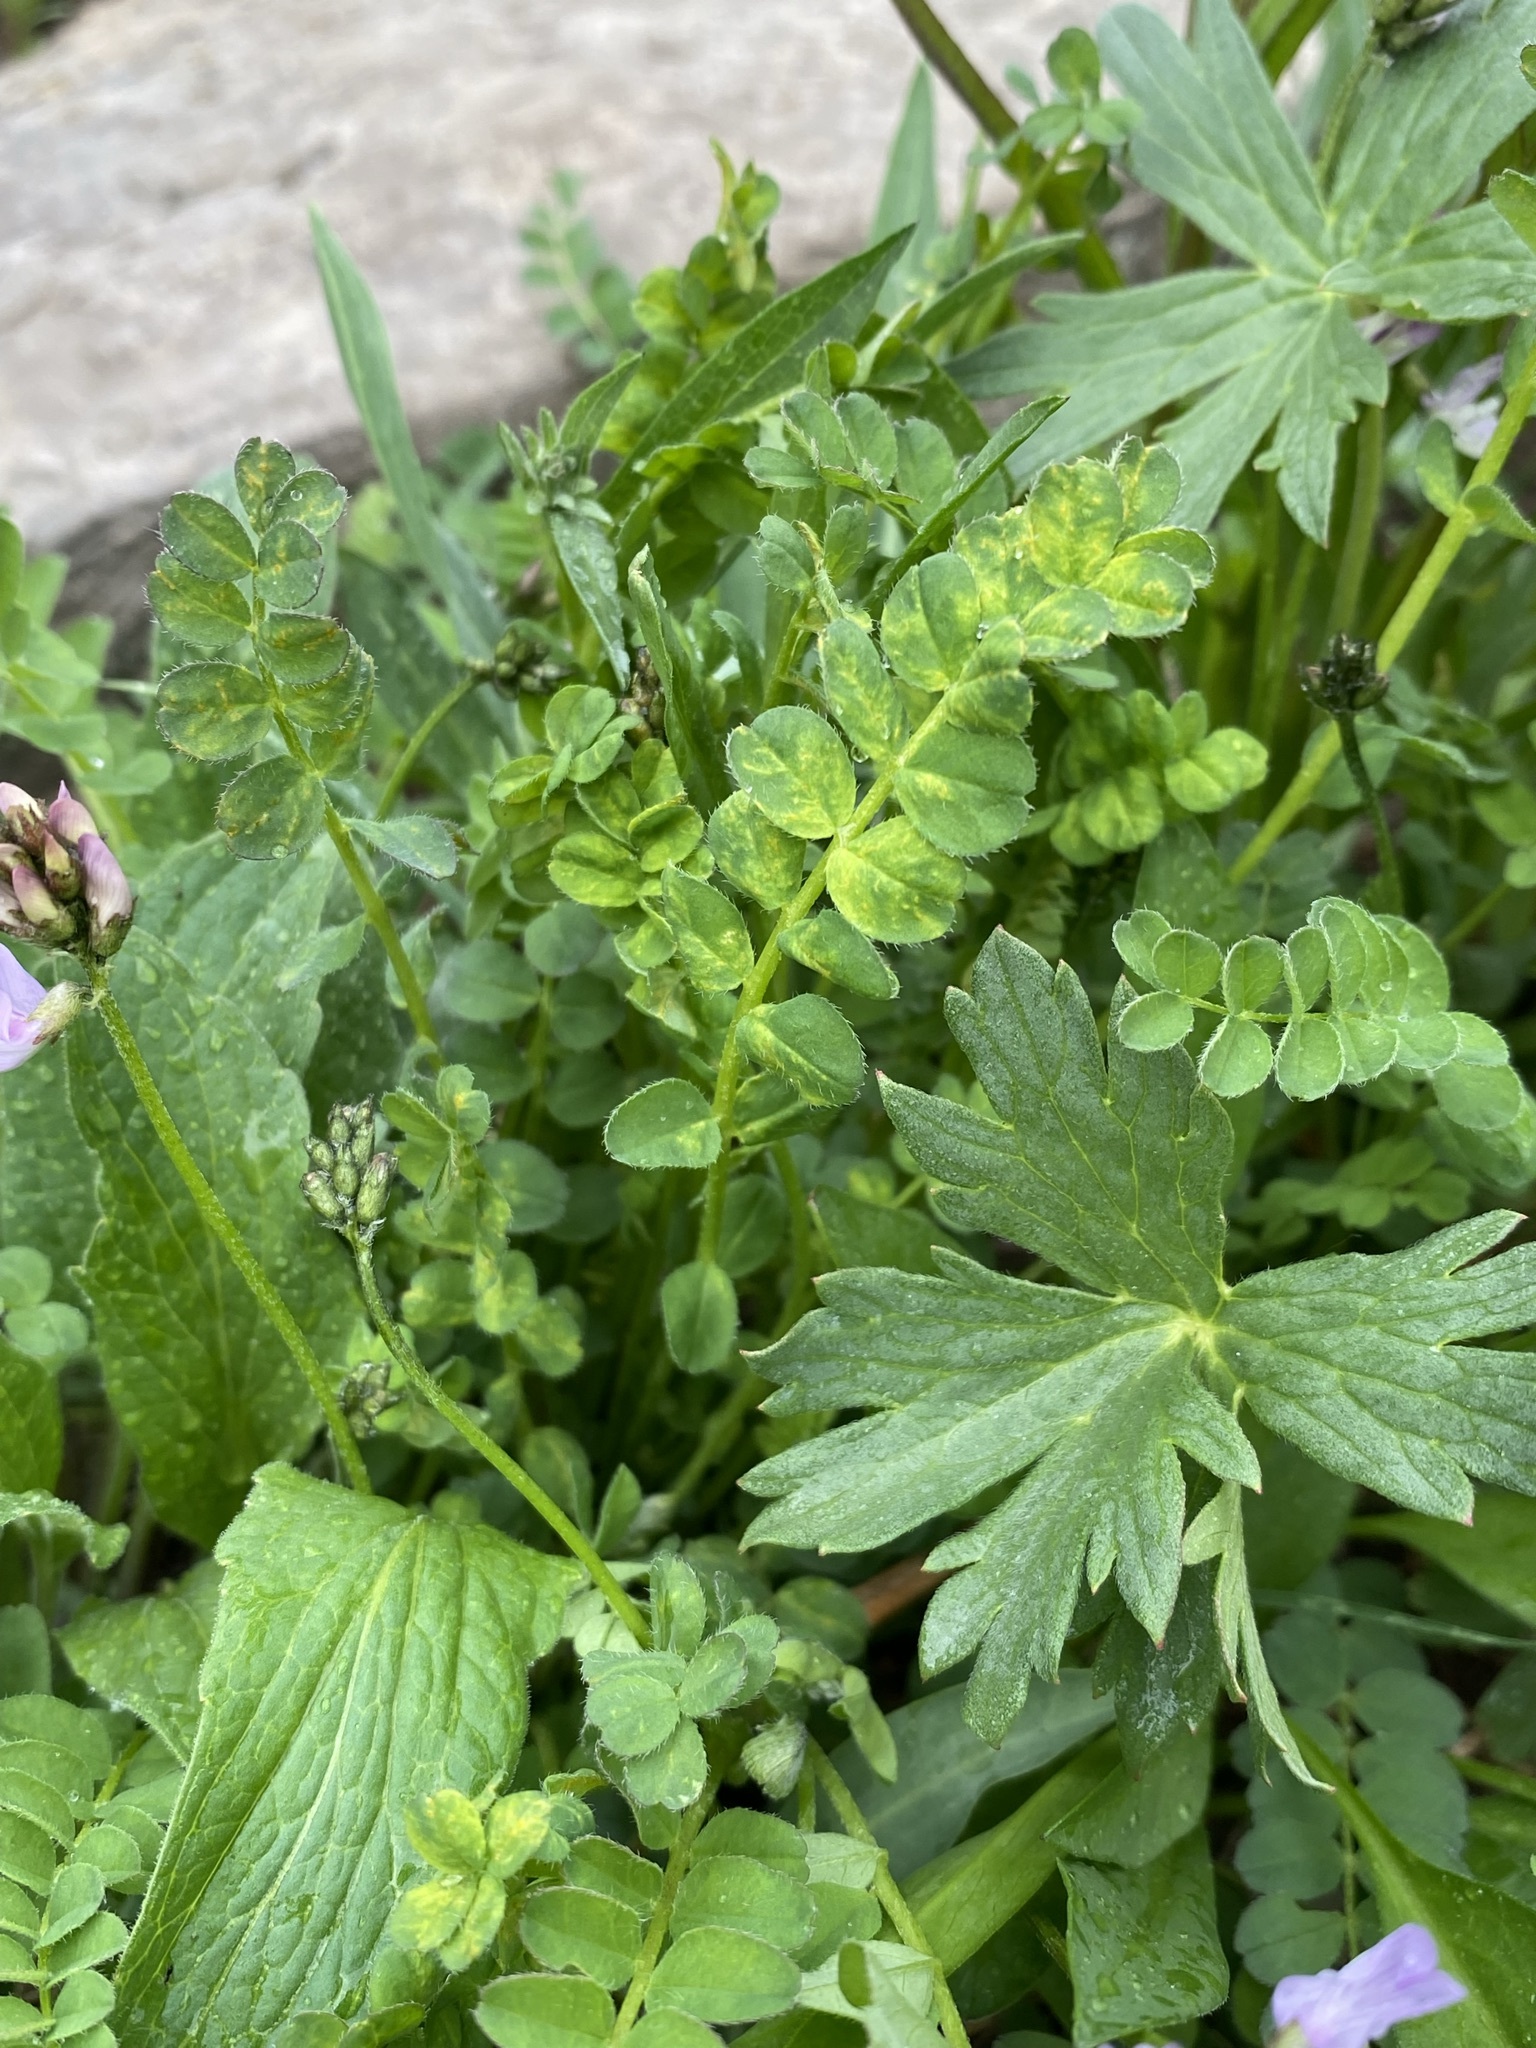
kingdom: Plantae
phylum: Tracheophyta
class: Magnoliopsida
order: Fabales
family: Fabaceae
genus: Astragalus
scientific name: Astragalus alpinus
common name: Alpine milk-vetch
